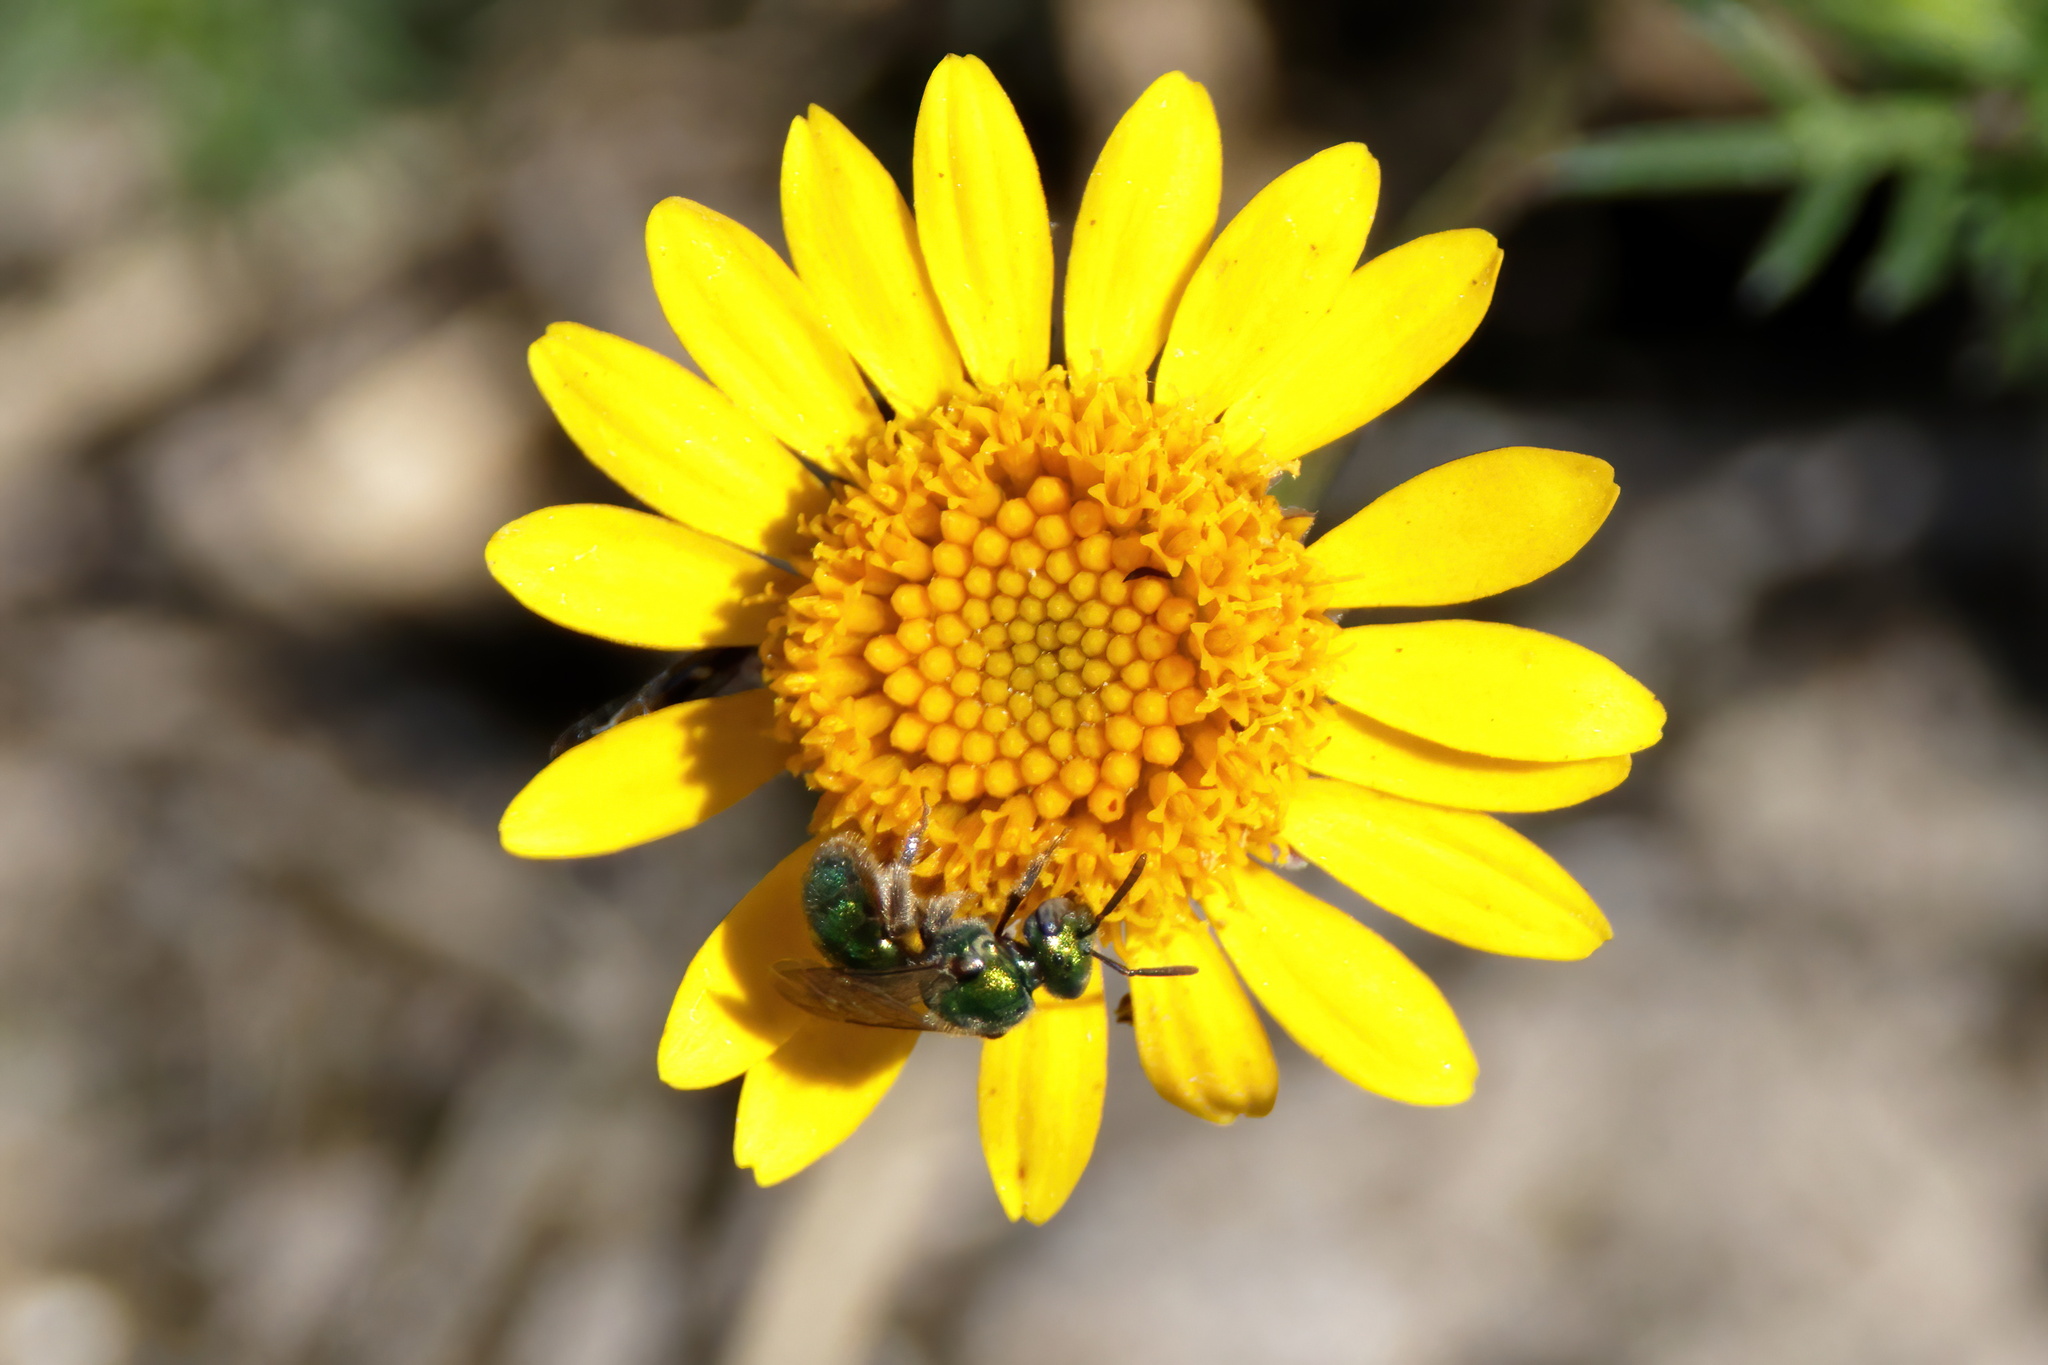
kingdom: Animalia
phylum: Arthropoda
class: Insecta
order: Hymenoptera
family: Halictidae
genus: Augochlora
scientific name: Augochlora aurifera
